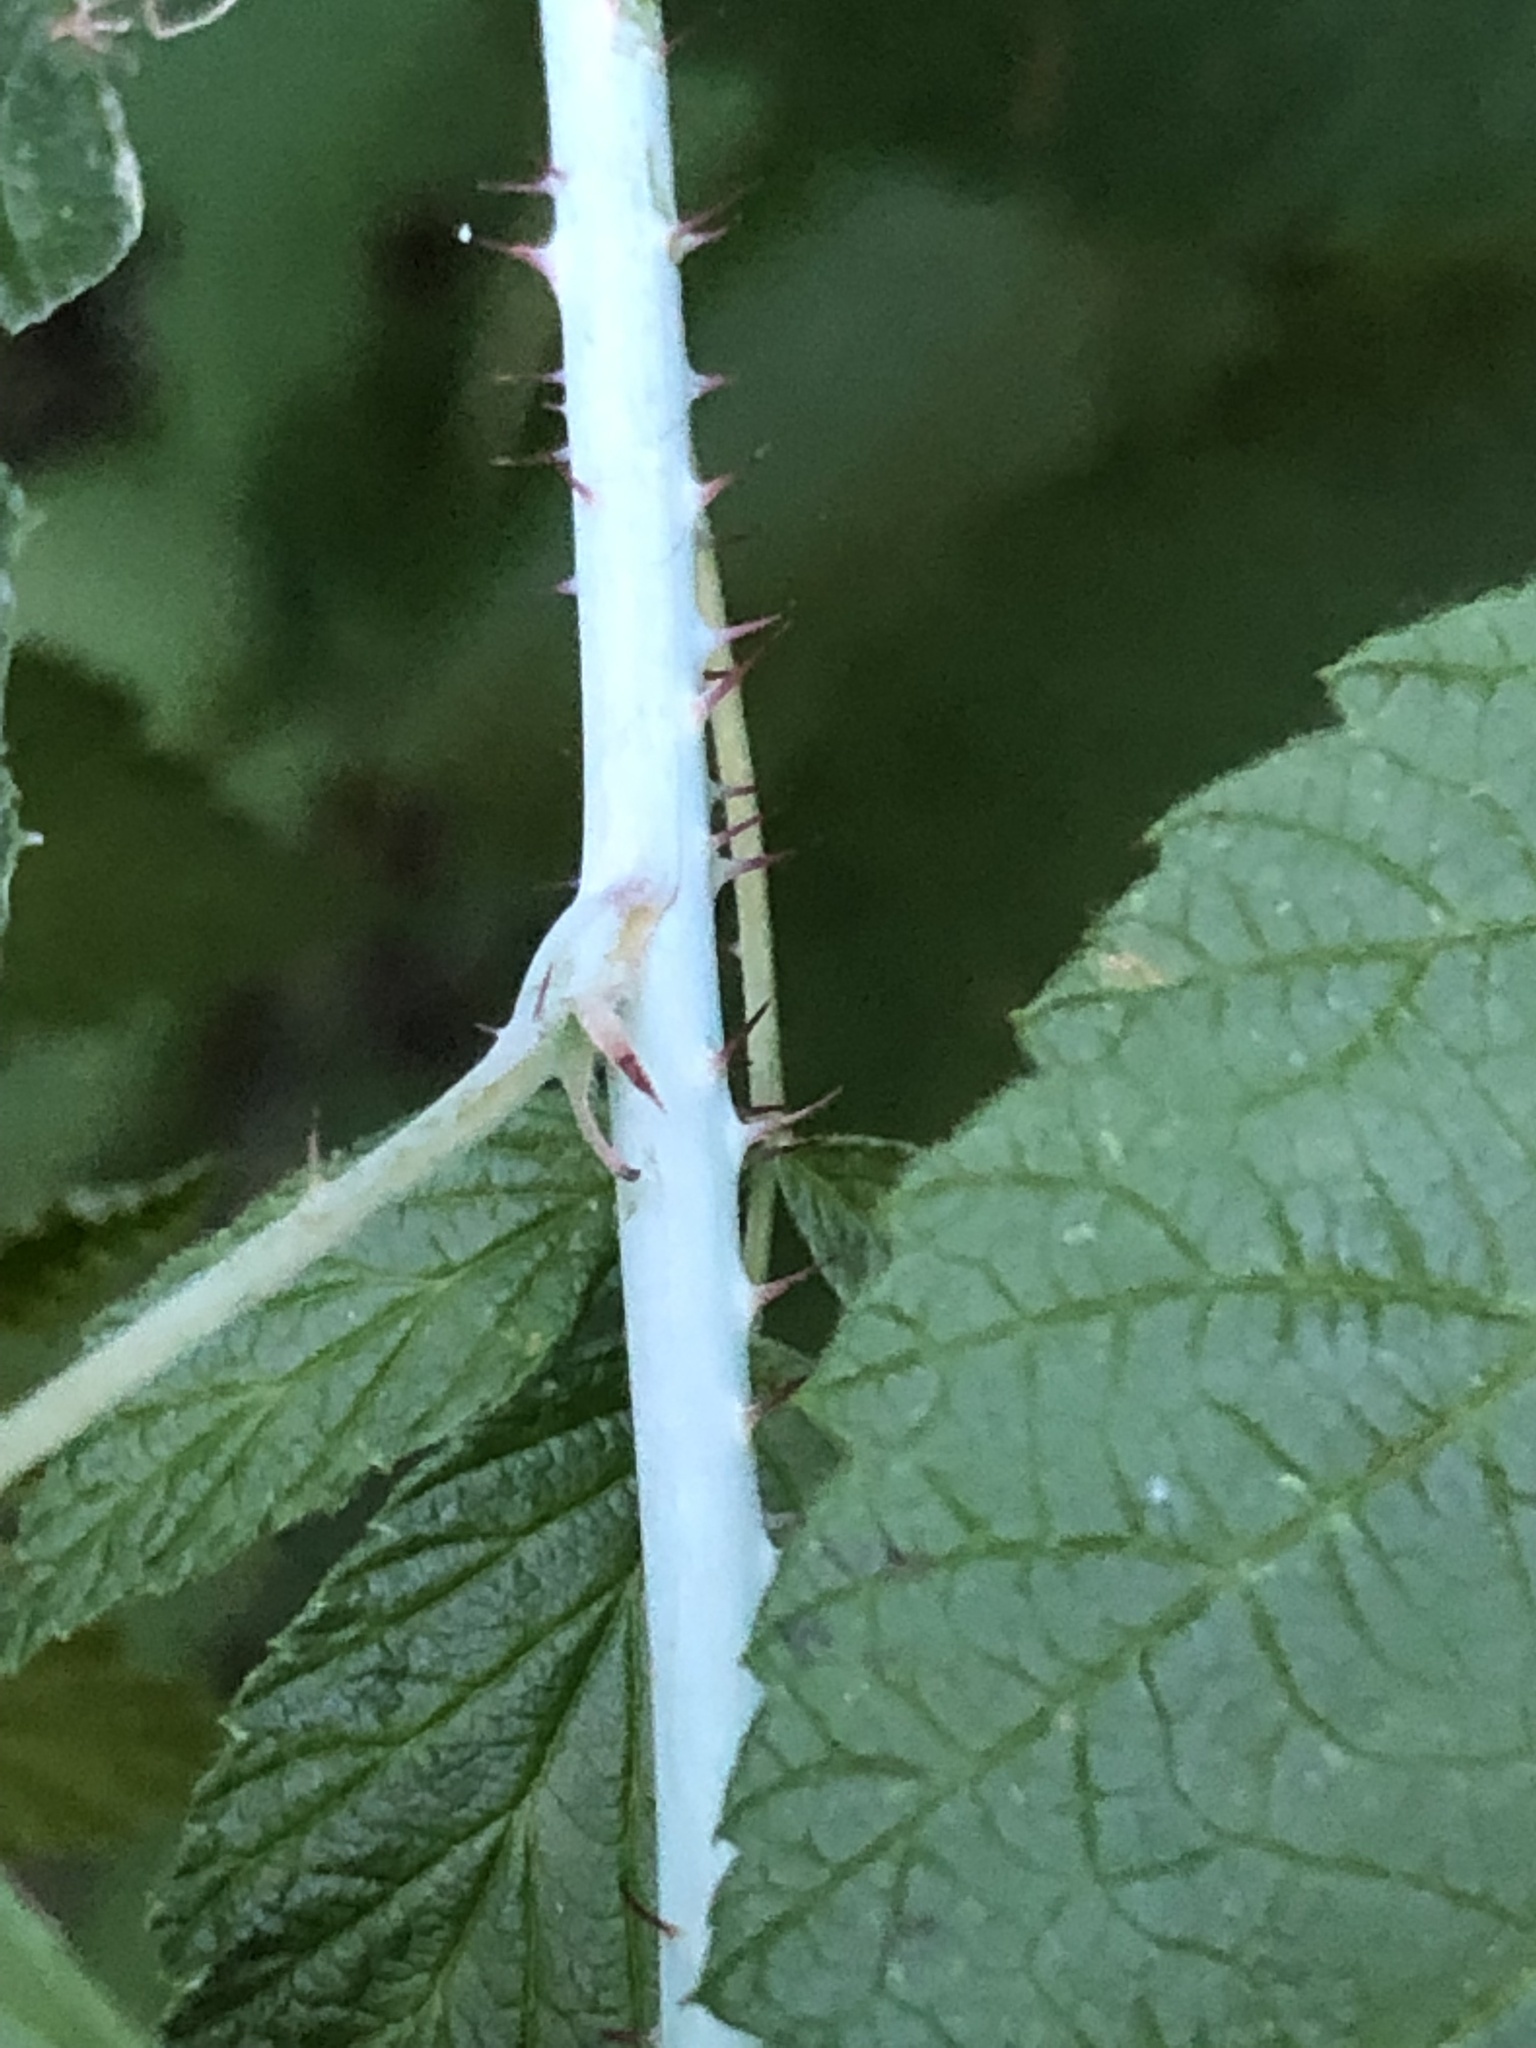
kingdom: Plantae
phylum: Tracheophyta
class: Magnoliopsida
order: Rosales
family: Rosaceae
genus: Rubus
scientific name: Rubus occidentalis
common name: Black raspberry
